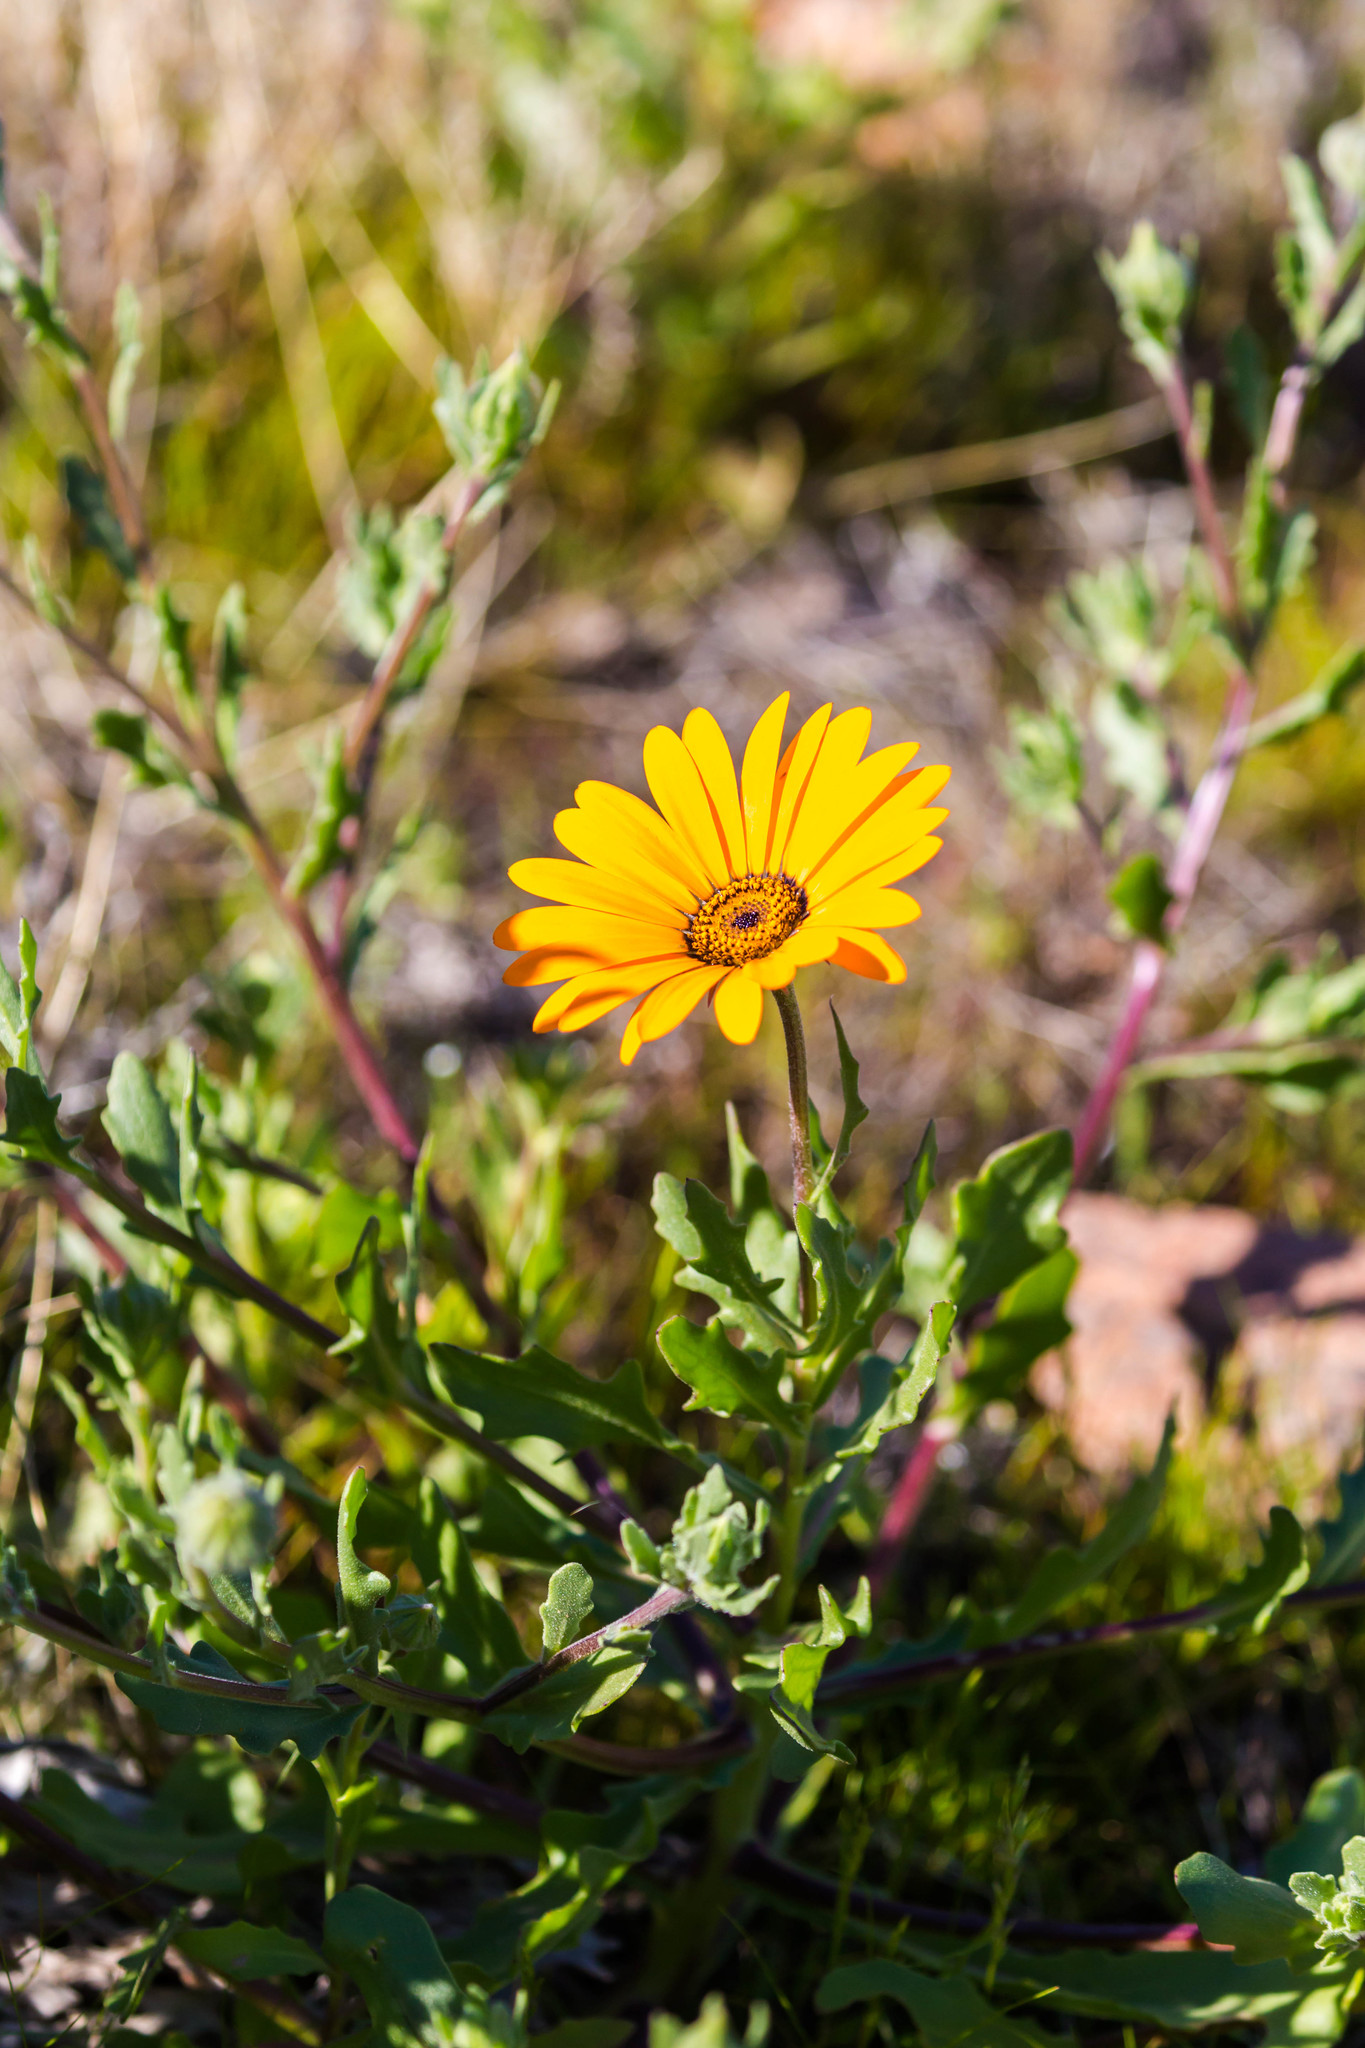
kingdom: Plantae
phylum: Tracheophyta
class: Magnoliopsida
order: Asterales
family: Asteraceae
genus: Dimorphotheca
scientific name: Dimorphotheca sinuata
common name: Glandular cape marigold
